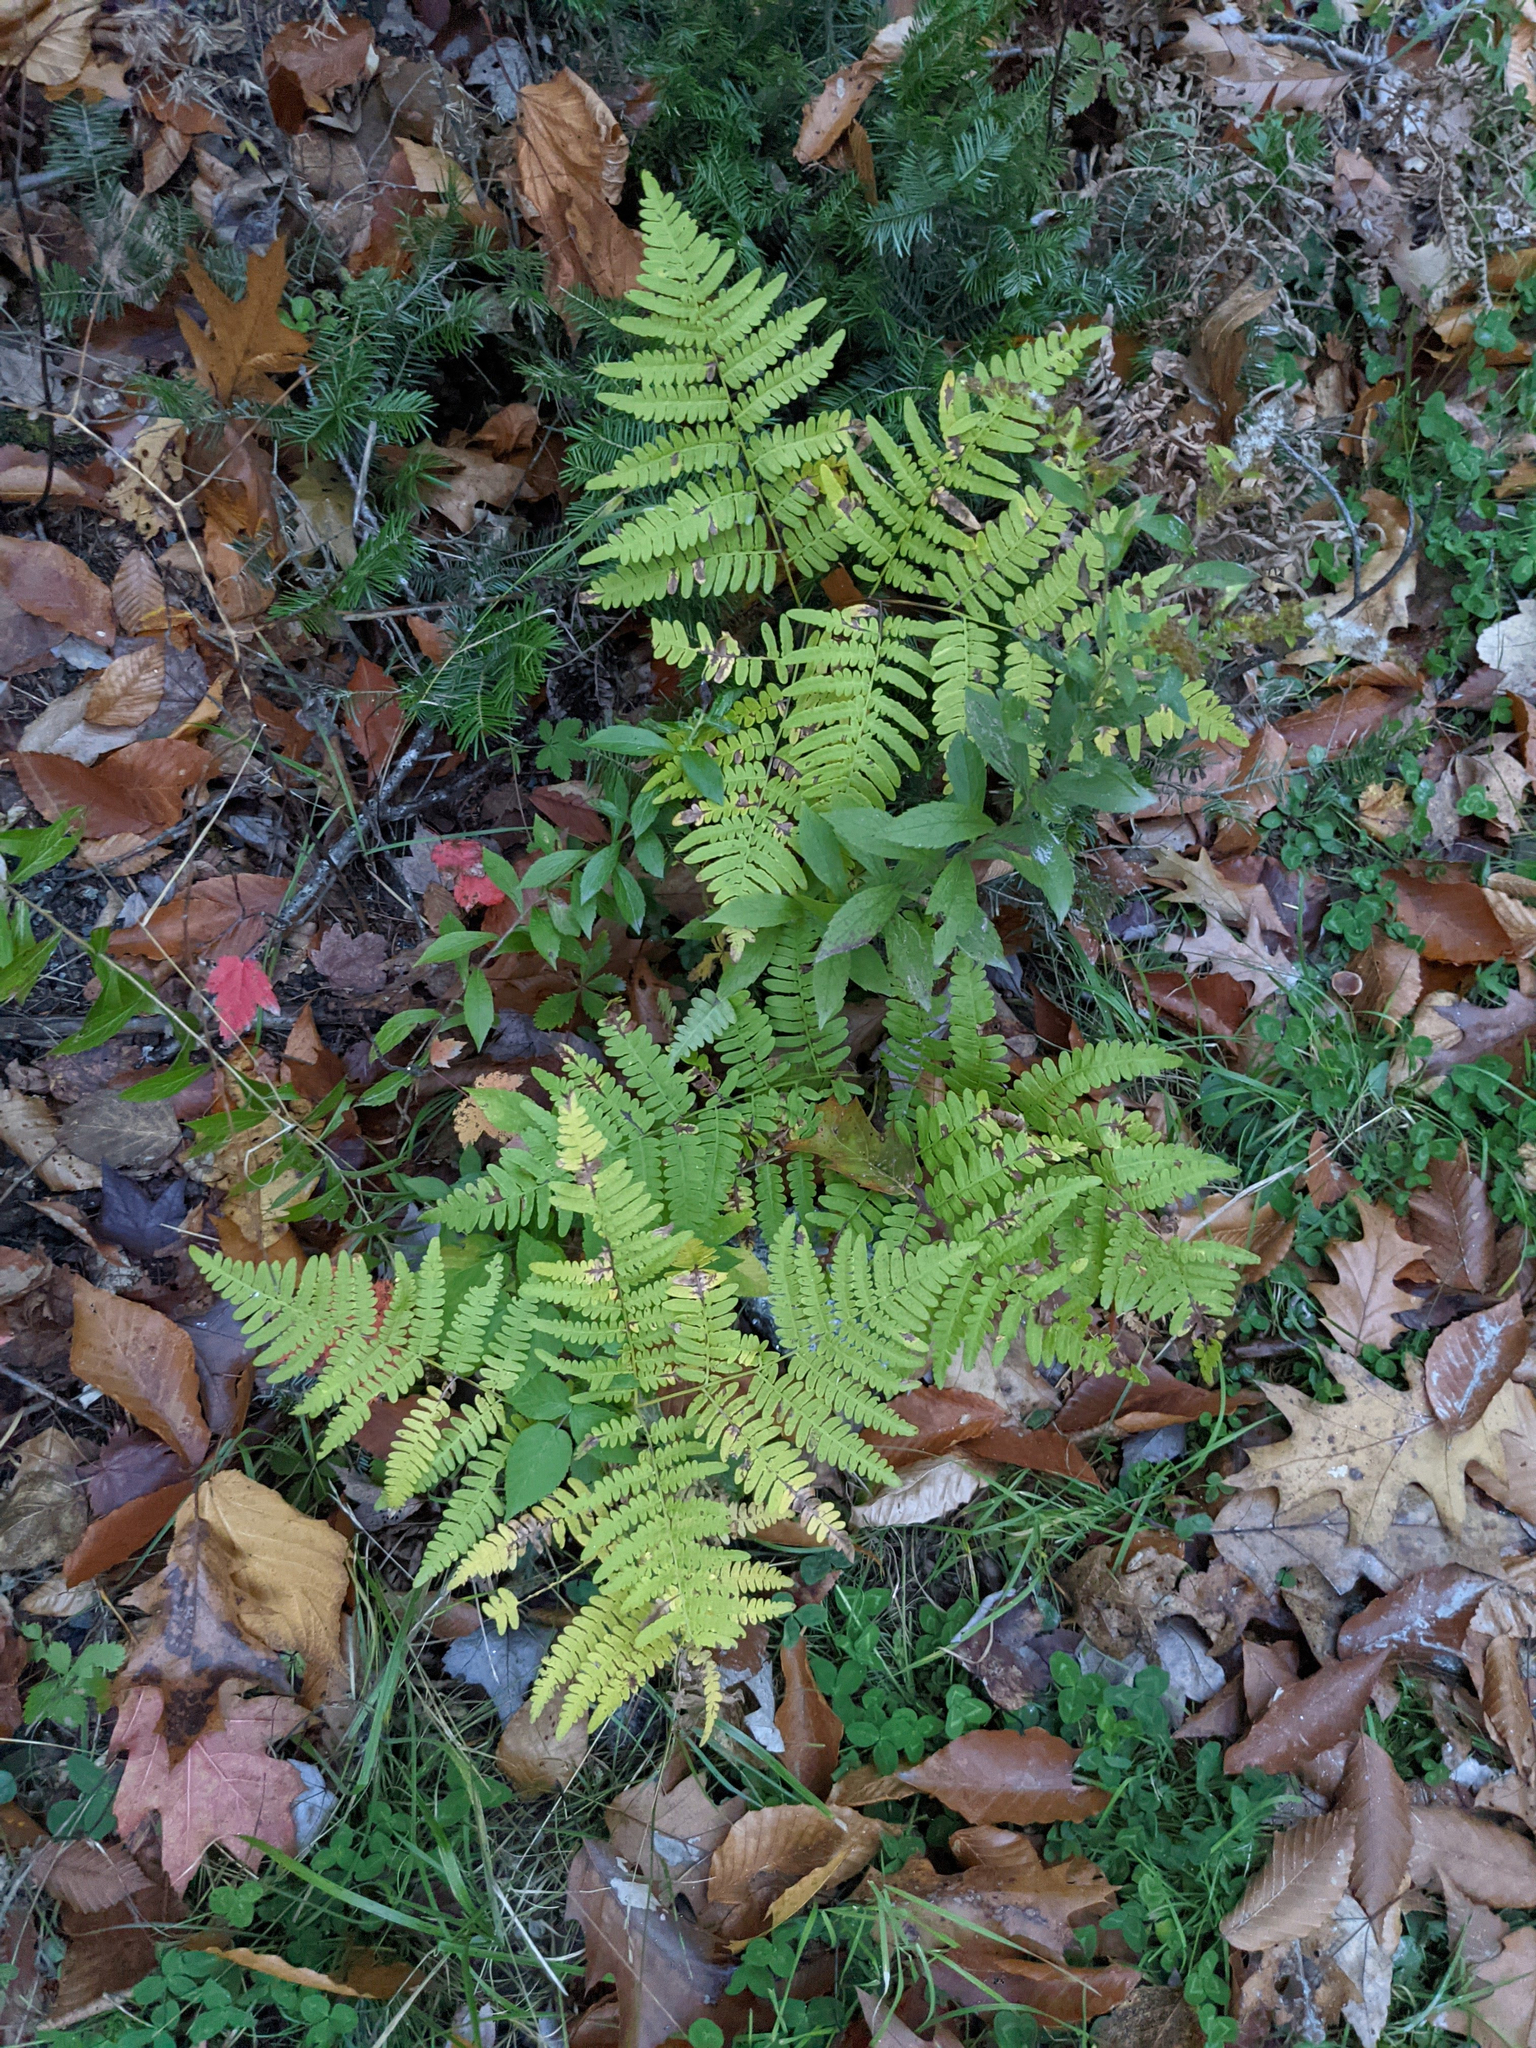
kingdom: Plantae
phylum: Tracheophyta
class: Polypodiopsida
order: Polypodiales
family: Dennstaedtiaceae
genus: Pteridium
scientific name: Pteridium aquilinum
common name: Bracken
